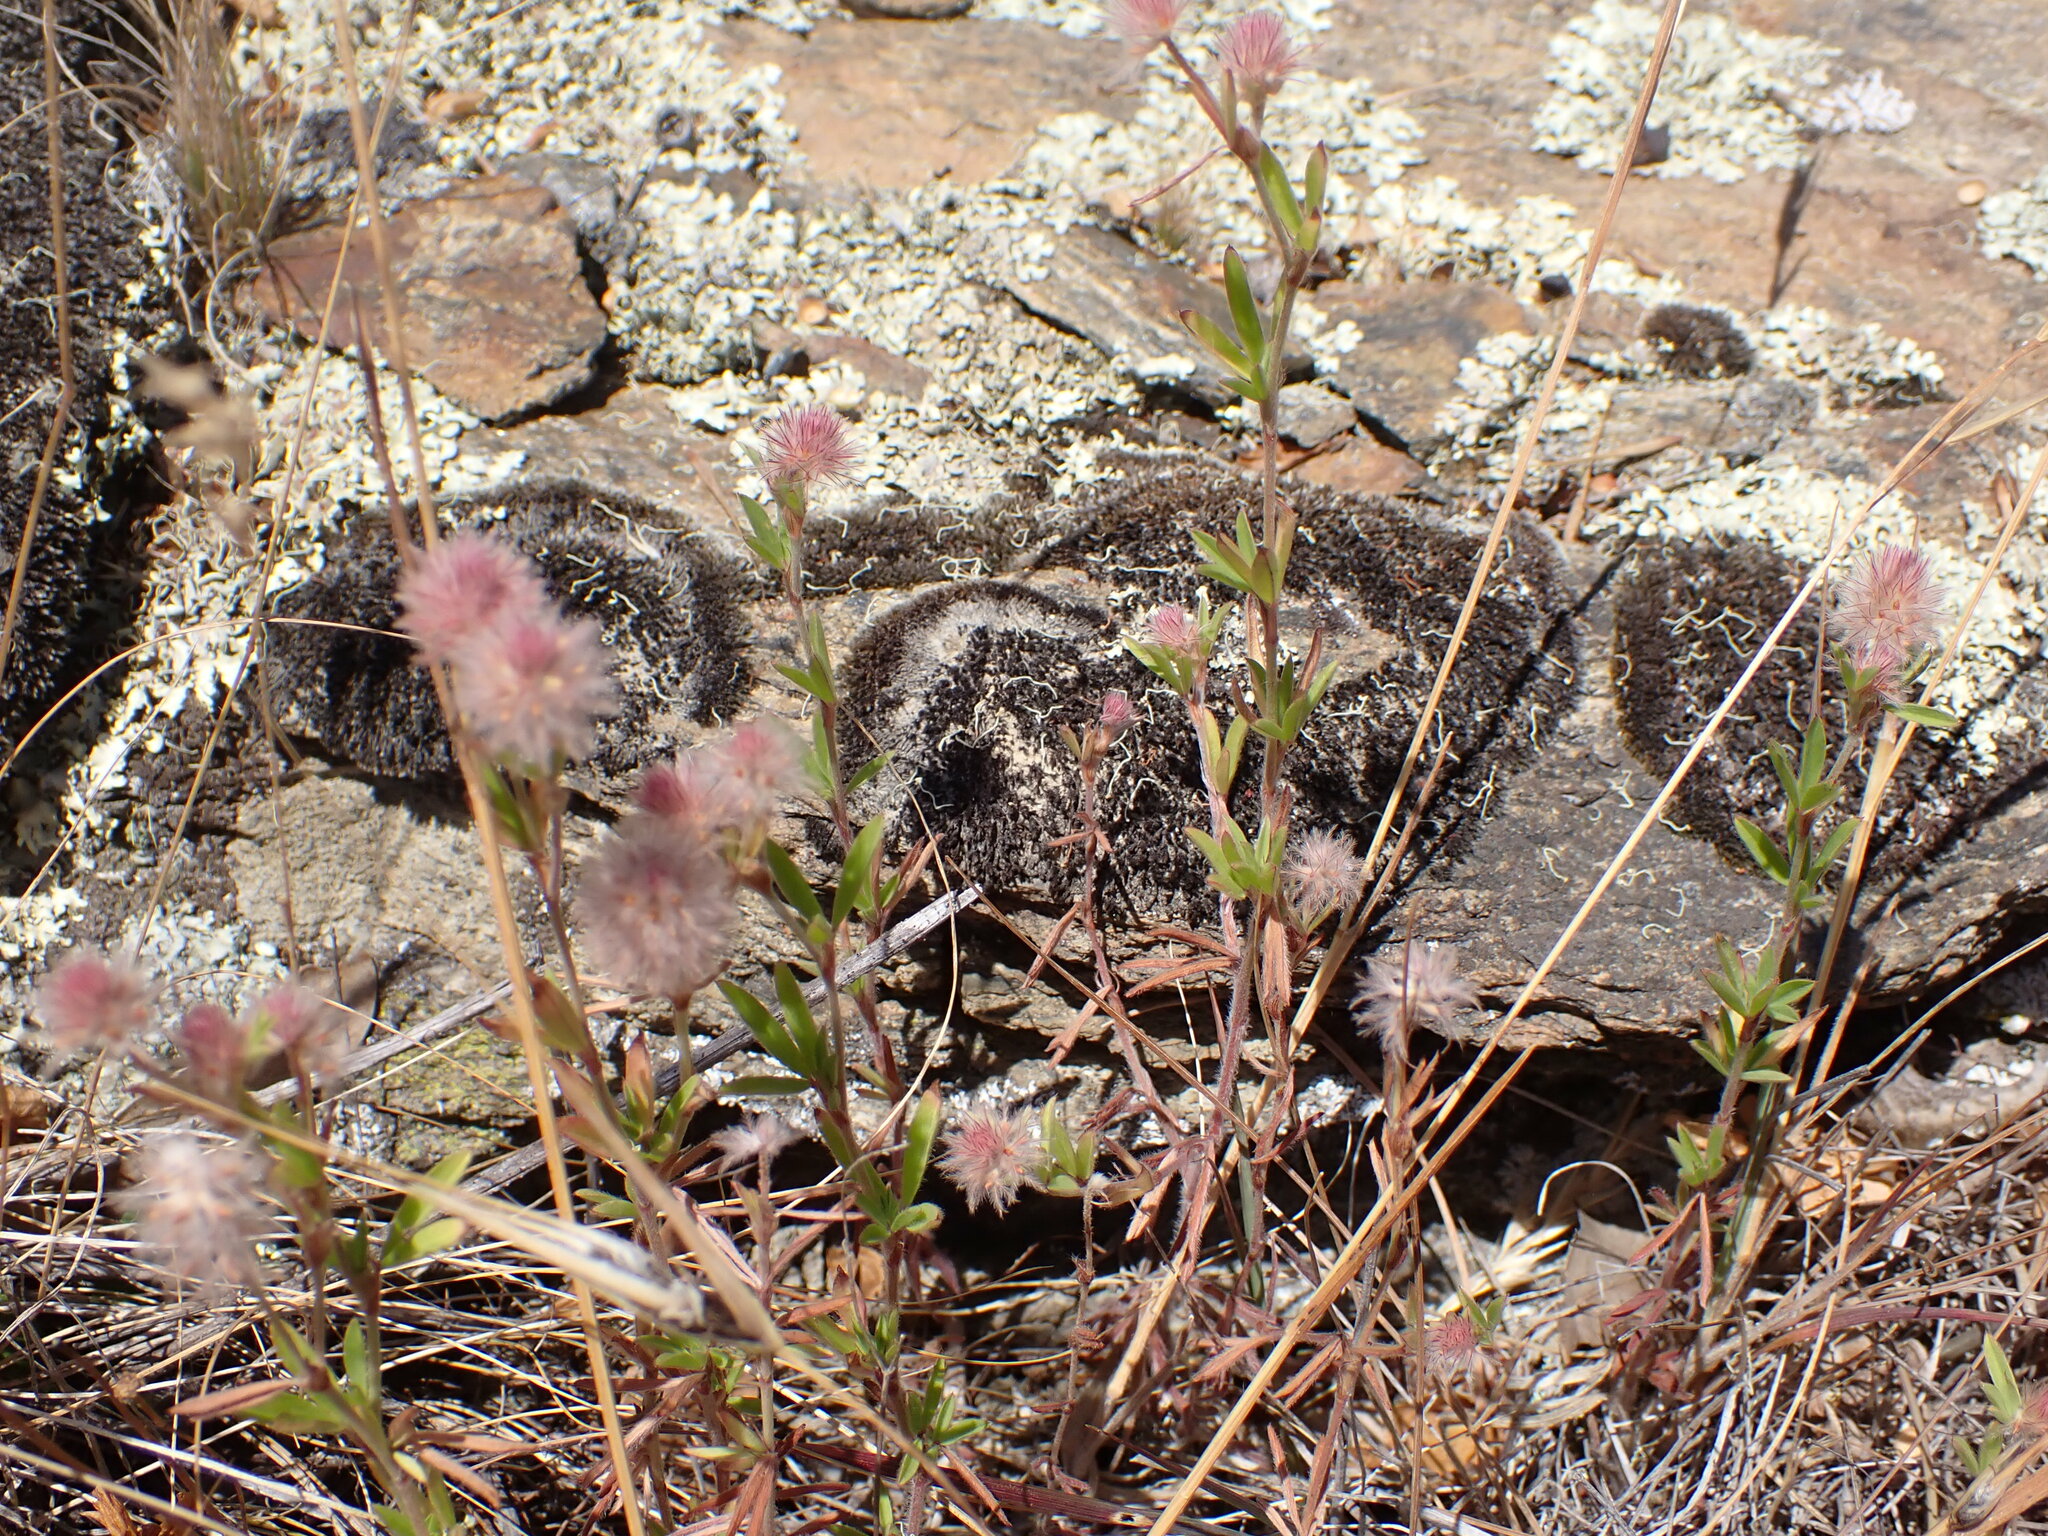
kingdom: Plantae
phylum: Tracheophyta
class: Magnoliopsida
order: Fabales
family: Fabaceae
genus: Trifolium
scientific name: Trifolium arvense
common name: Hare's-foot clover
